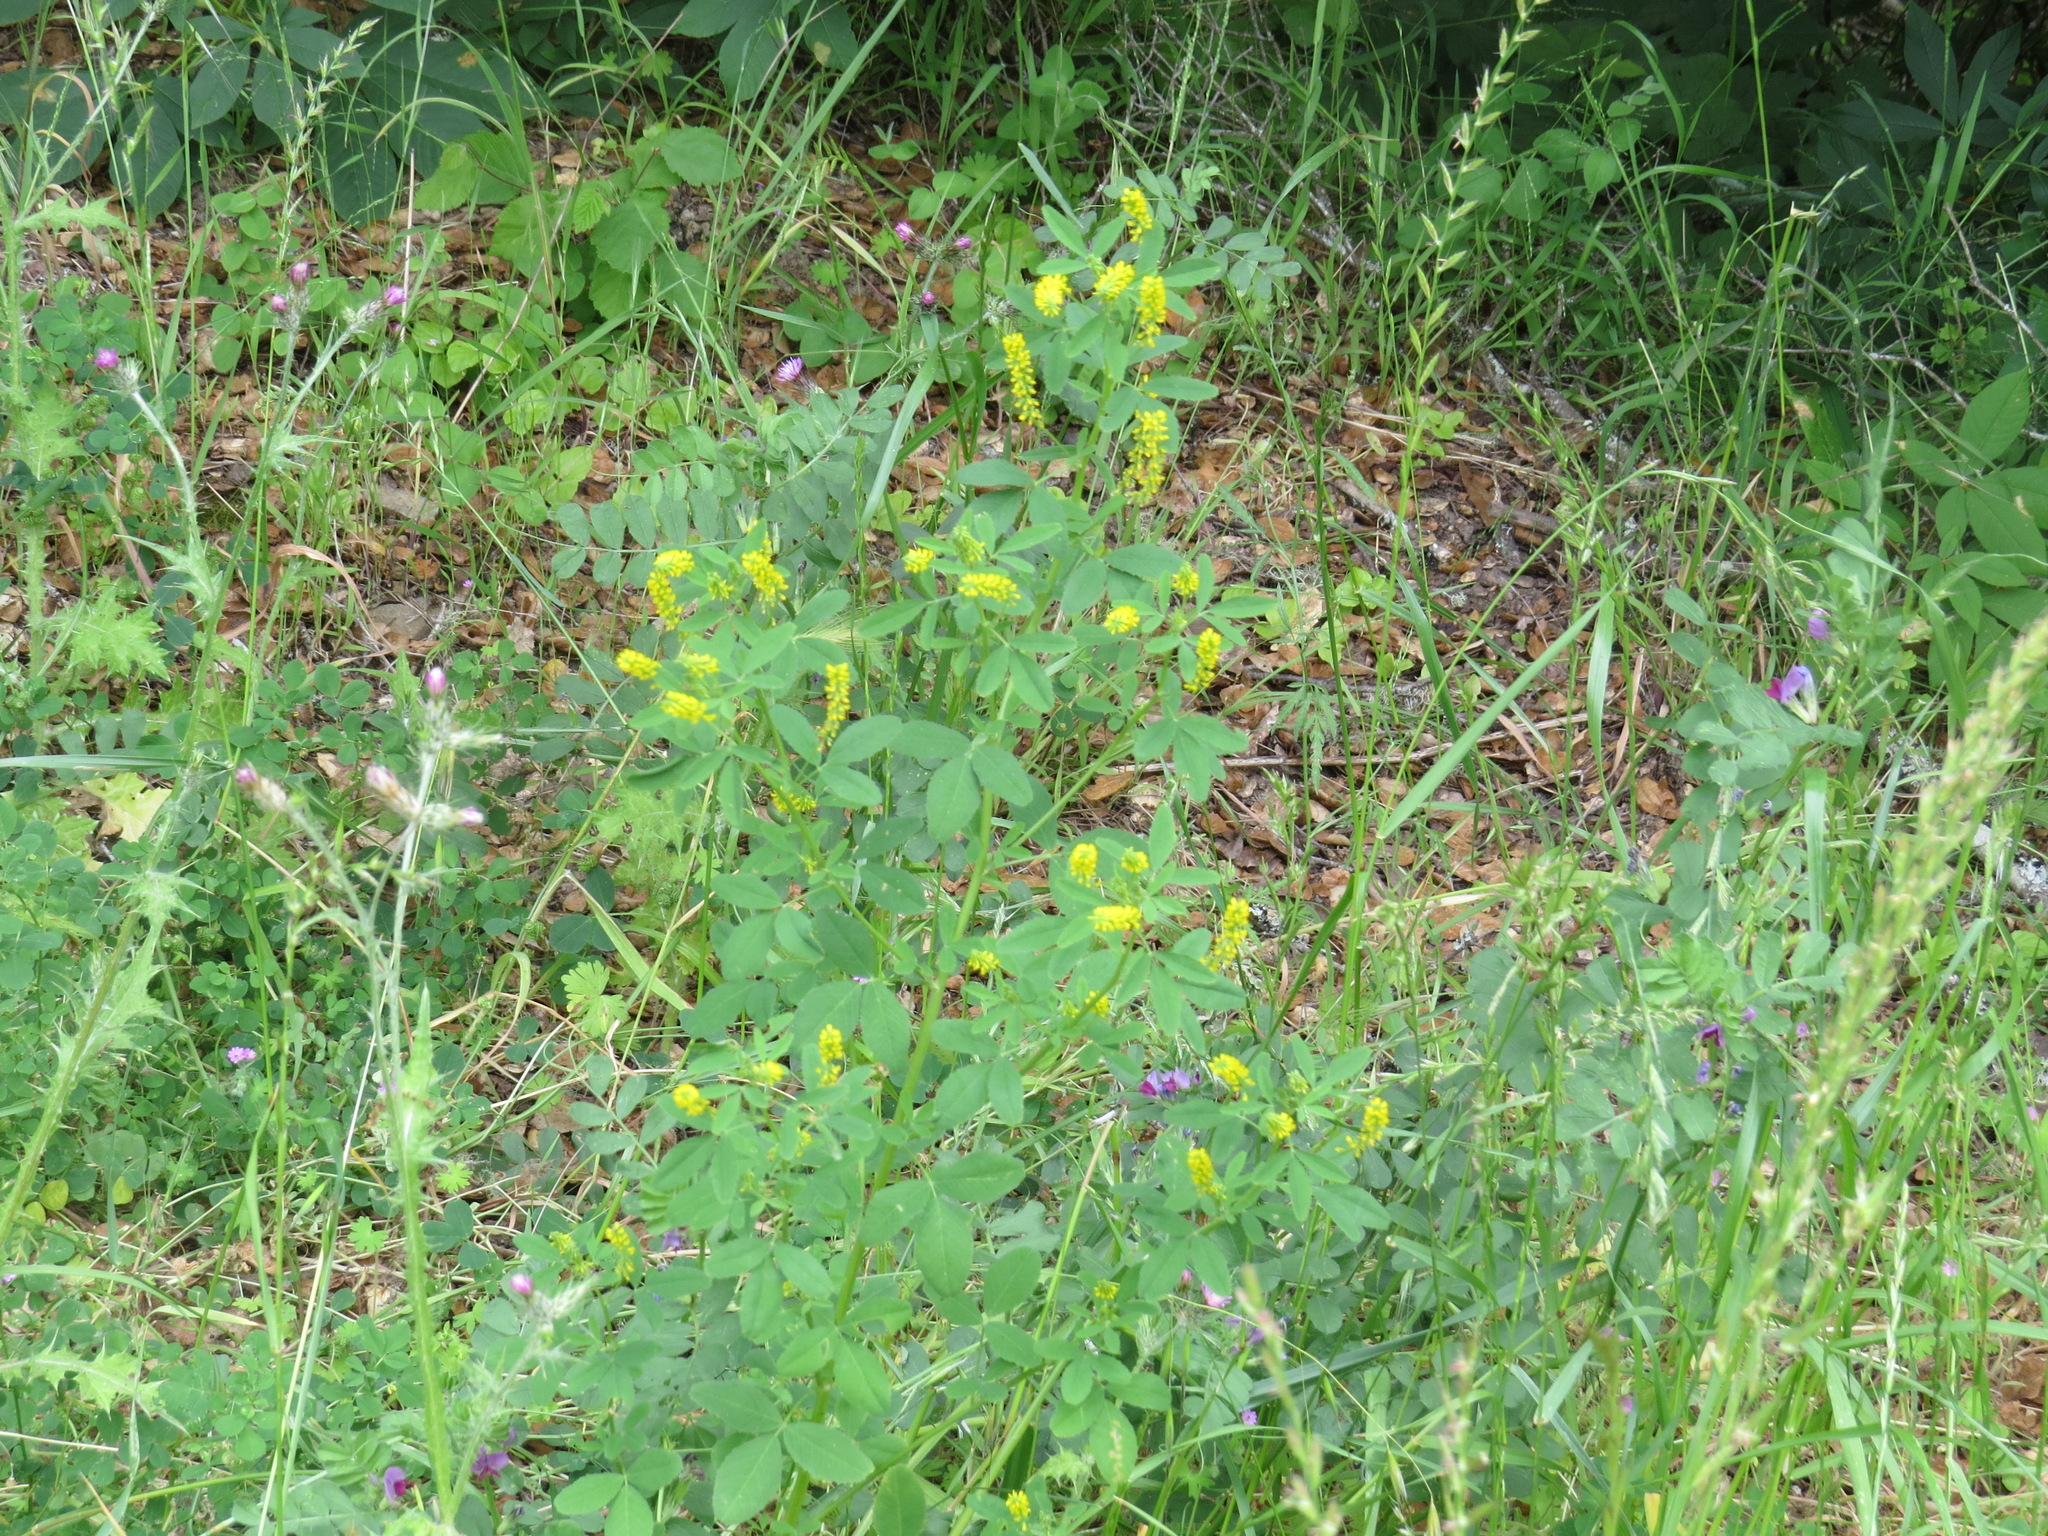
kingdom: Plantae
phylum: Tracheophyta
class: Magnoliopsida
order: Fabales
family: Fabaceae
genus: Melilotus
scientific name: Melilotus indicus
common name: Small melilot
